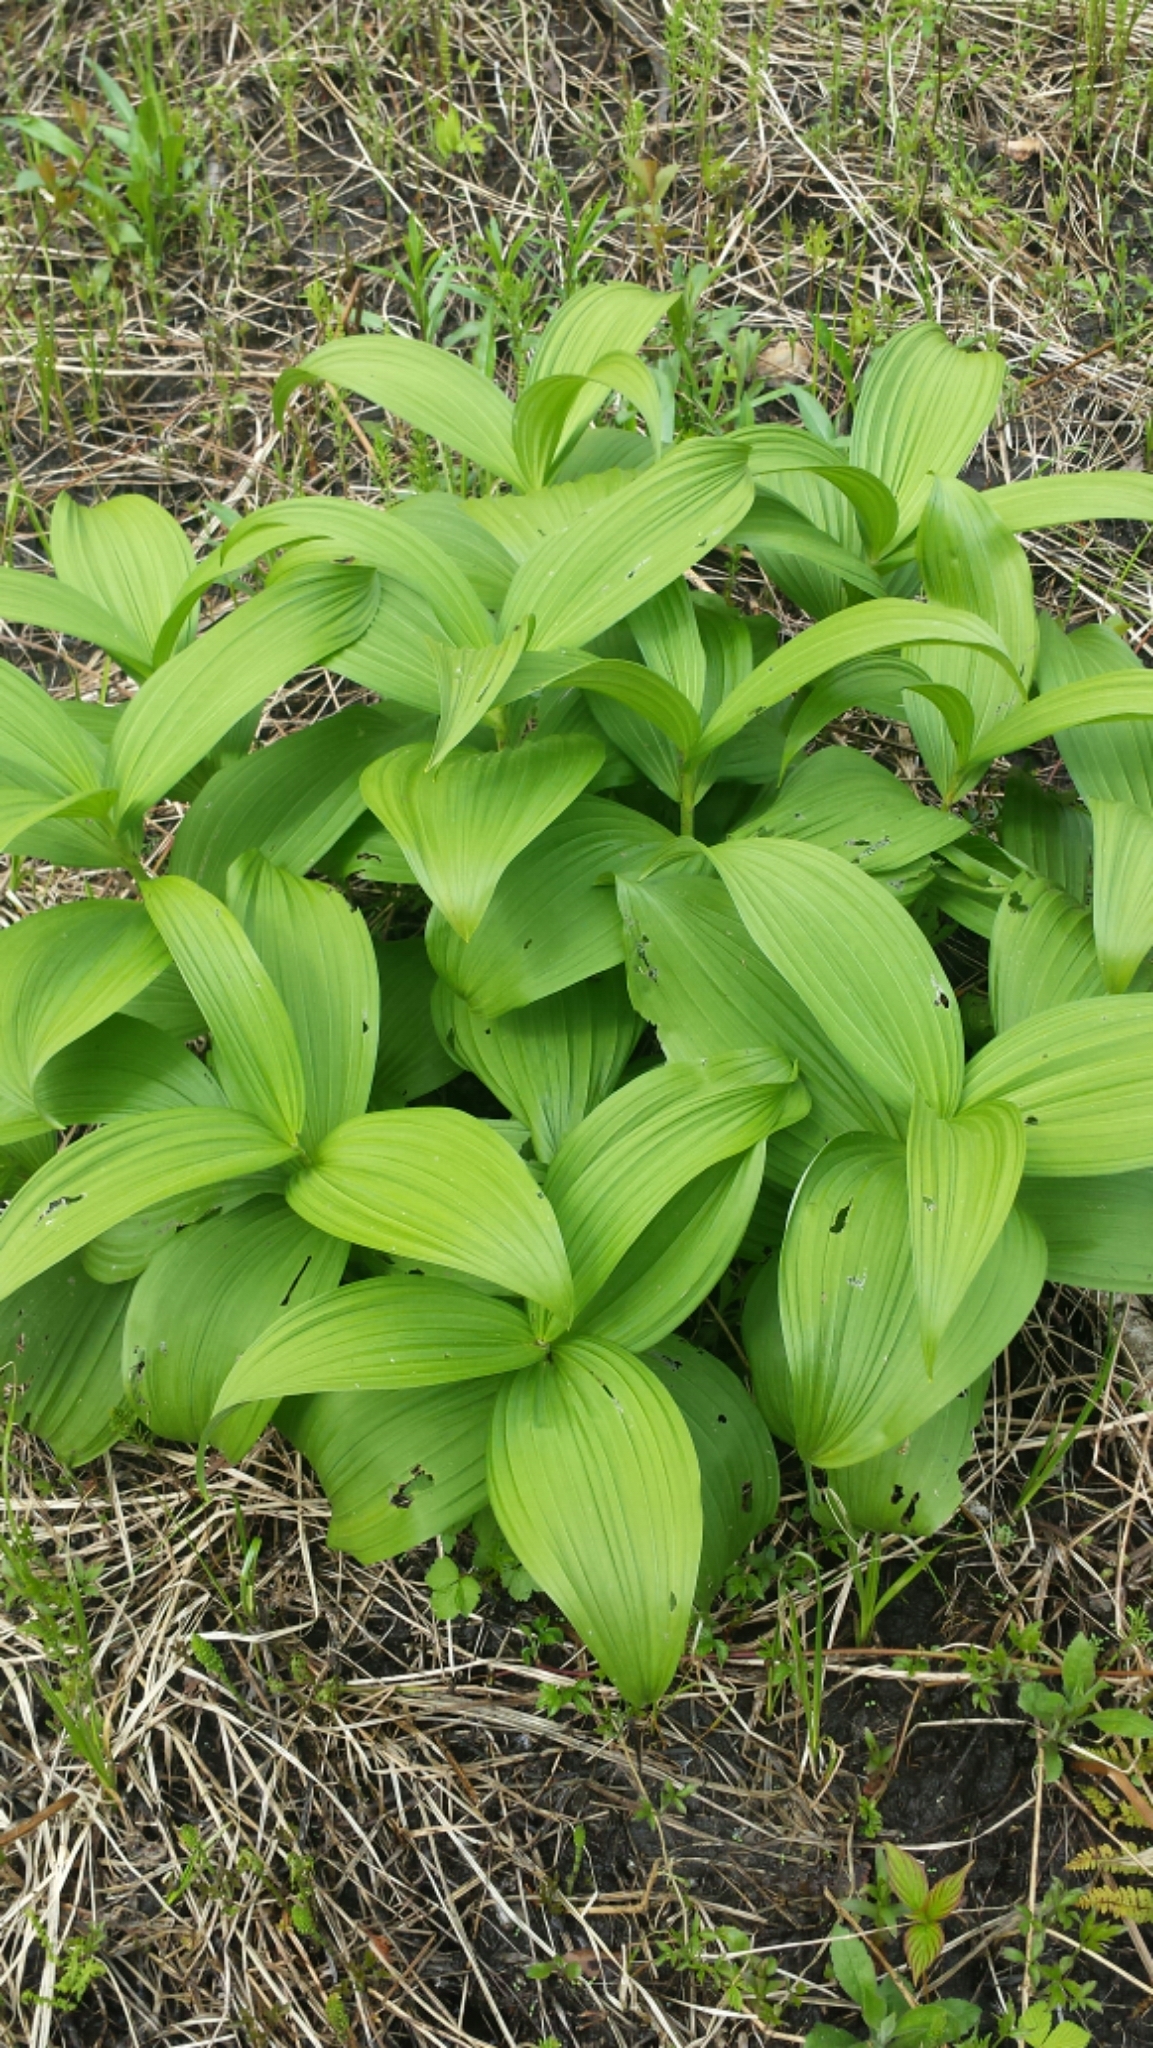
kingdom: Plantae
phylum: Tracheophyta
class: Liliopsida
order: Liliales
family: Melanthiaceae
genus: Veratrum
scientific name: Veratrum viride
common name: American false hellebore
